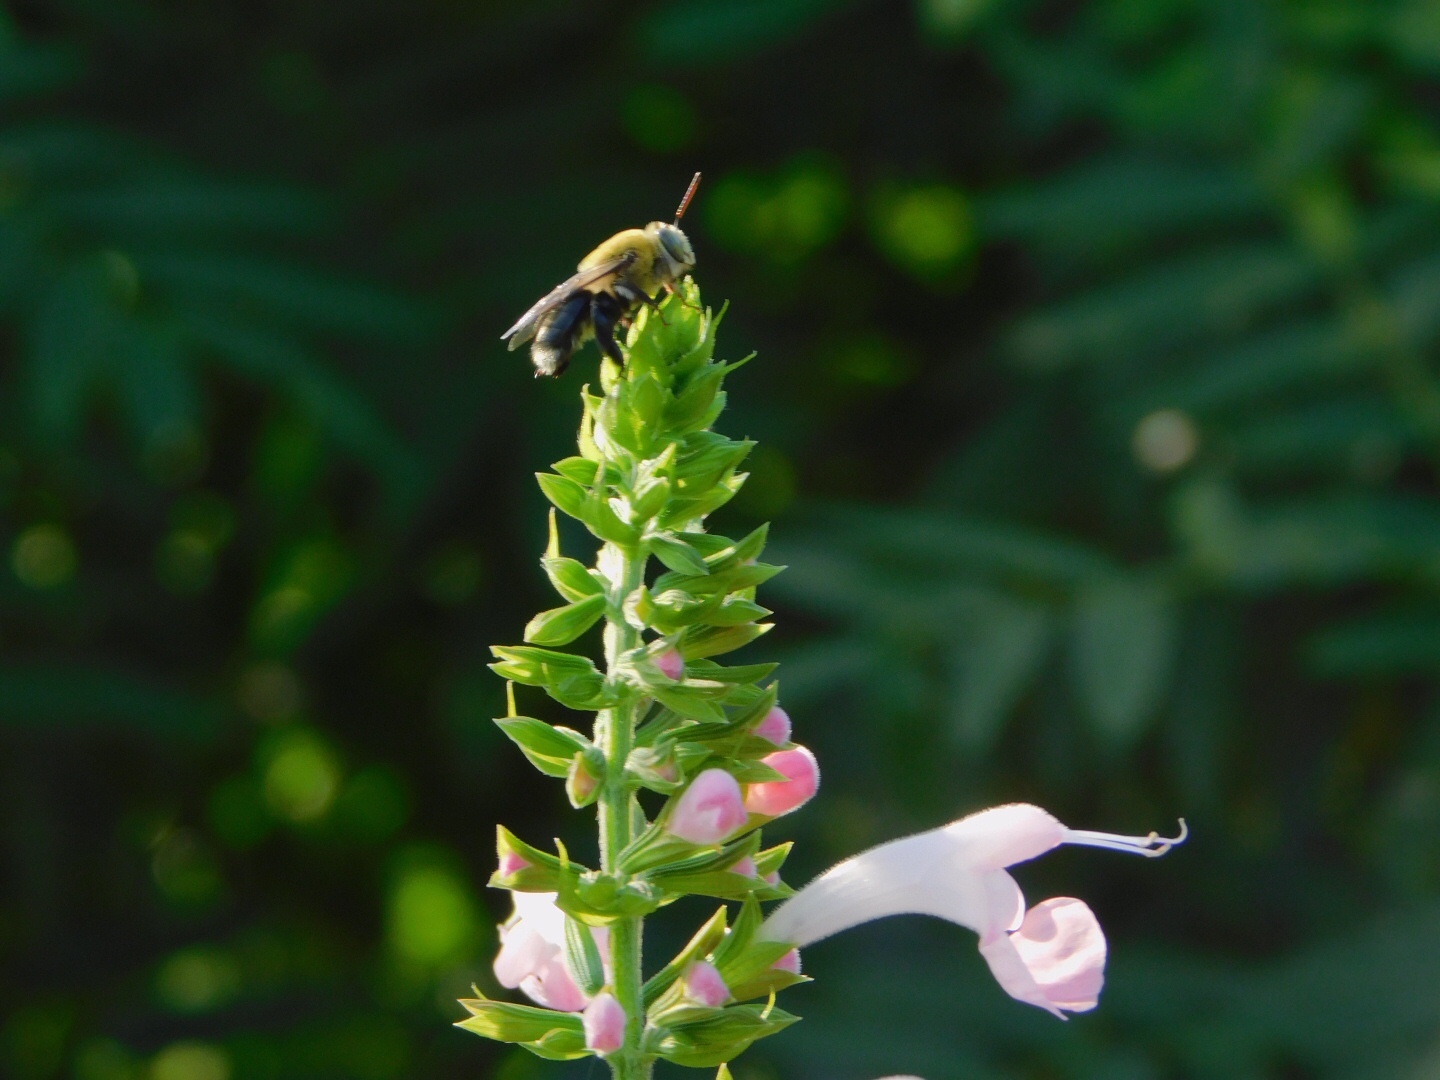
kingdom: Animalia
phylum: Arthropoda
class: Insecta
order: Hymenoptera
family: Apidae
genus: Centris
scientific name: Centris nitida
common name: Oil-collecting bee
